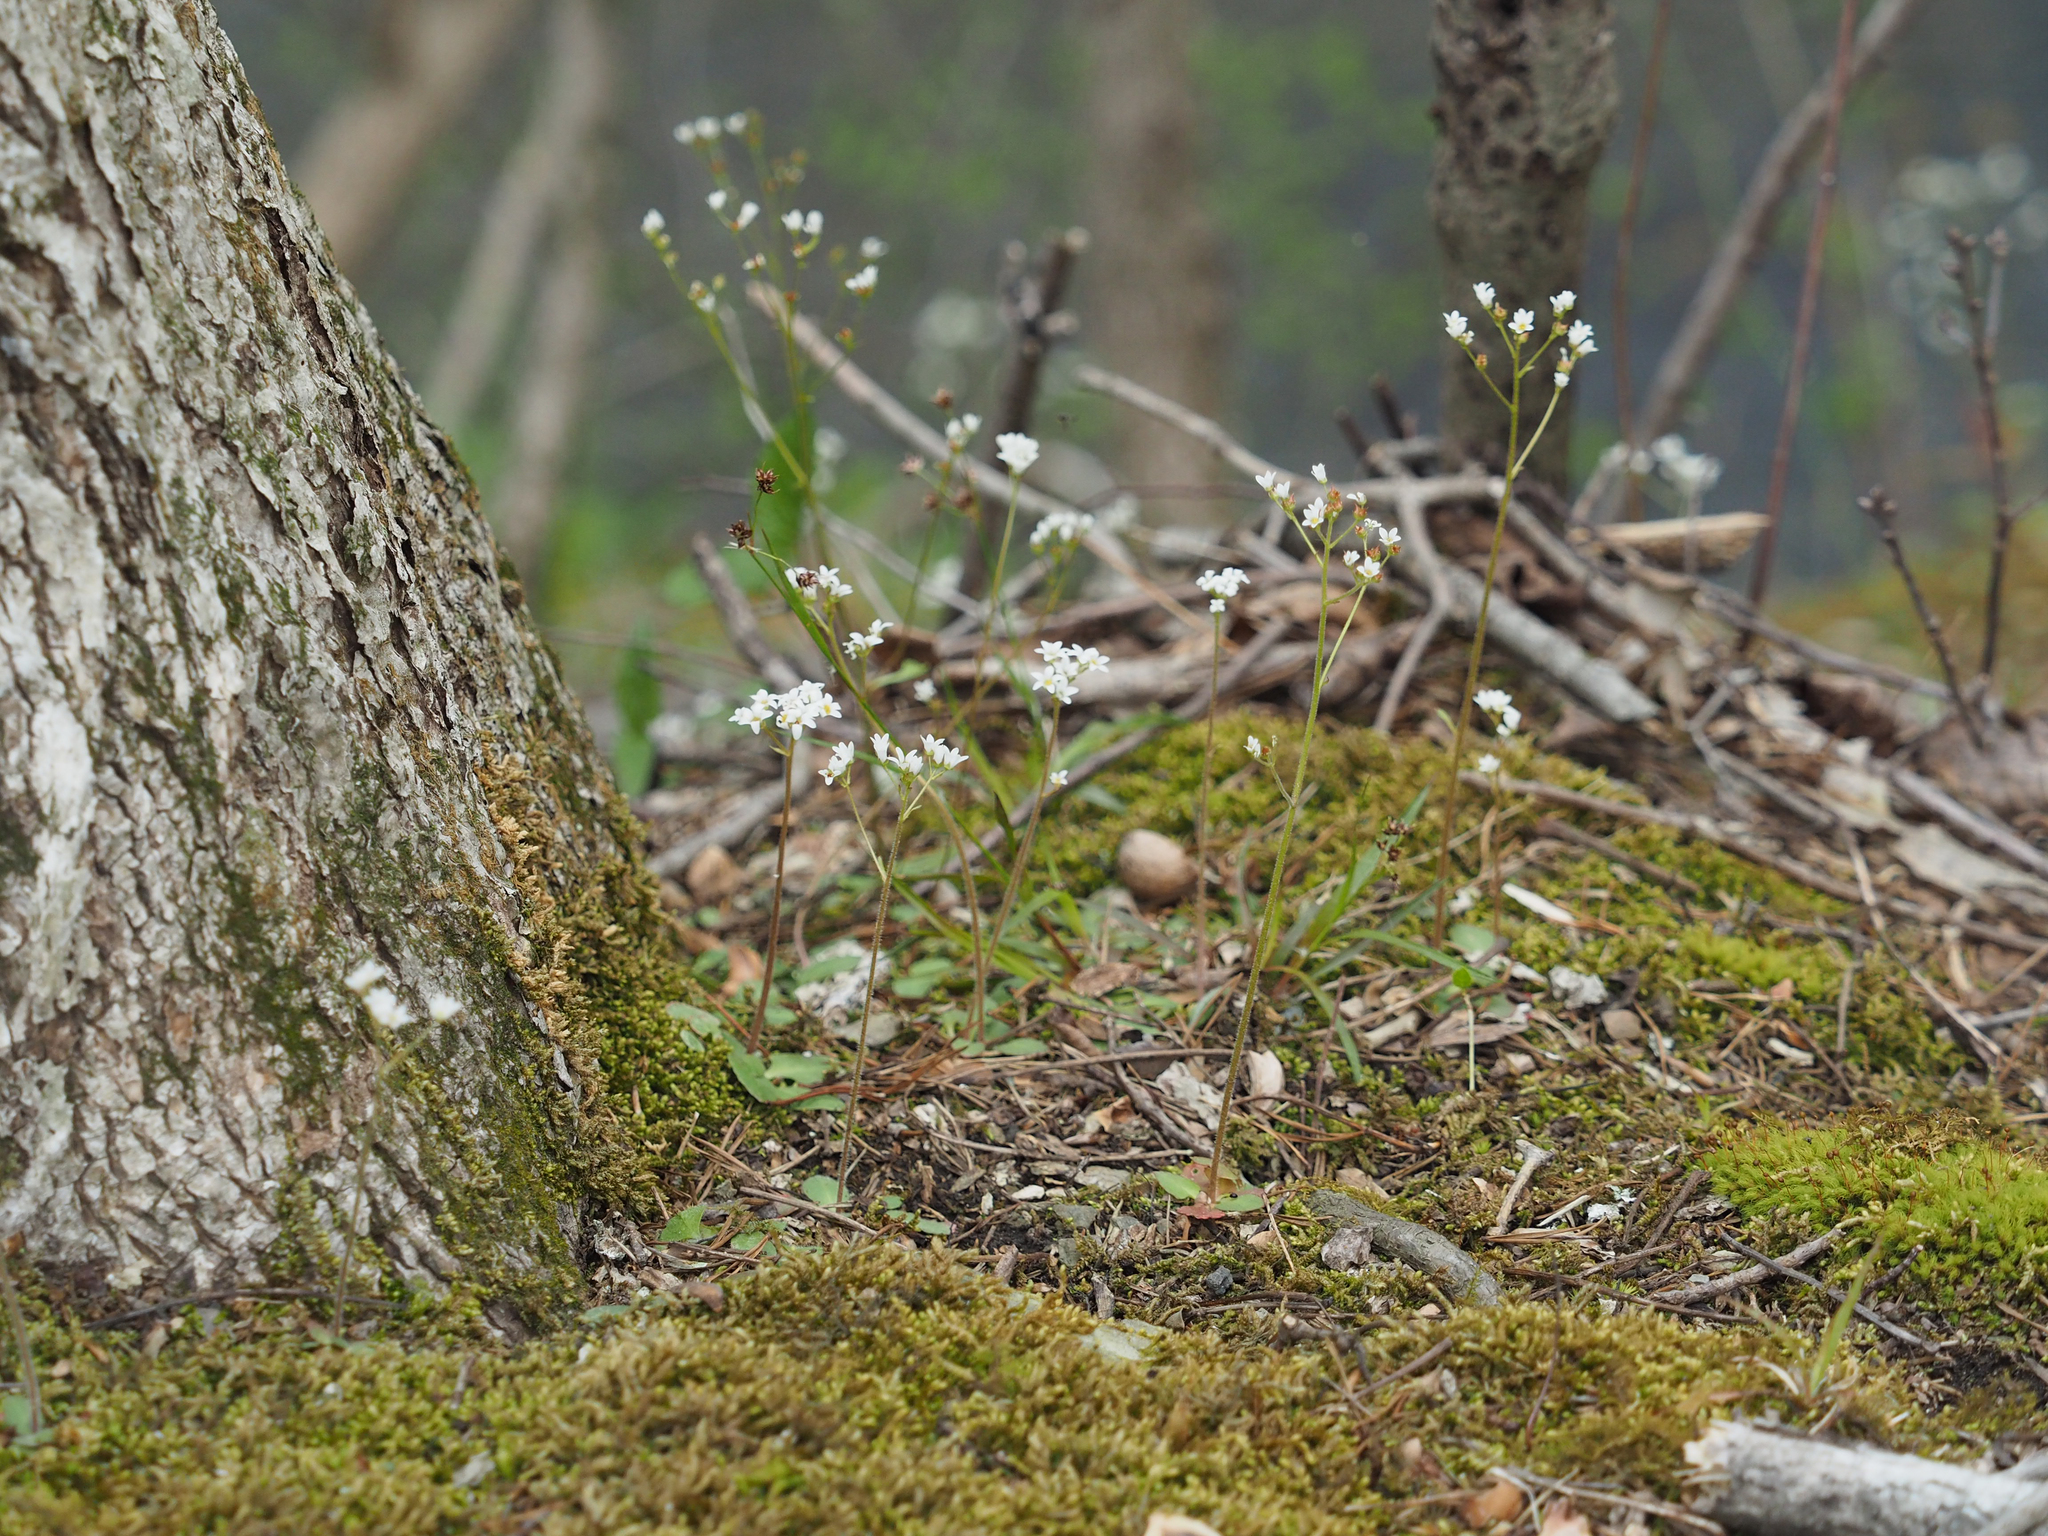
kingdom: Plantae
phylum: Tracheophyta
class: Magnoliopsida
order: Saxifragales
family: Saxifragaceae
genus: Micranthes
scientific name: Micranthes virginiensis
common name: Early saxifrage
